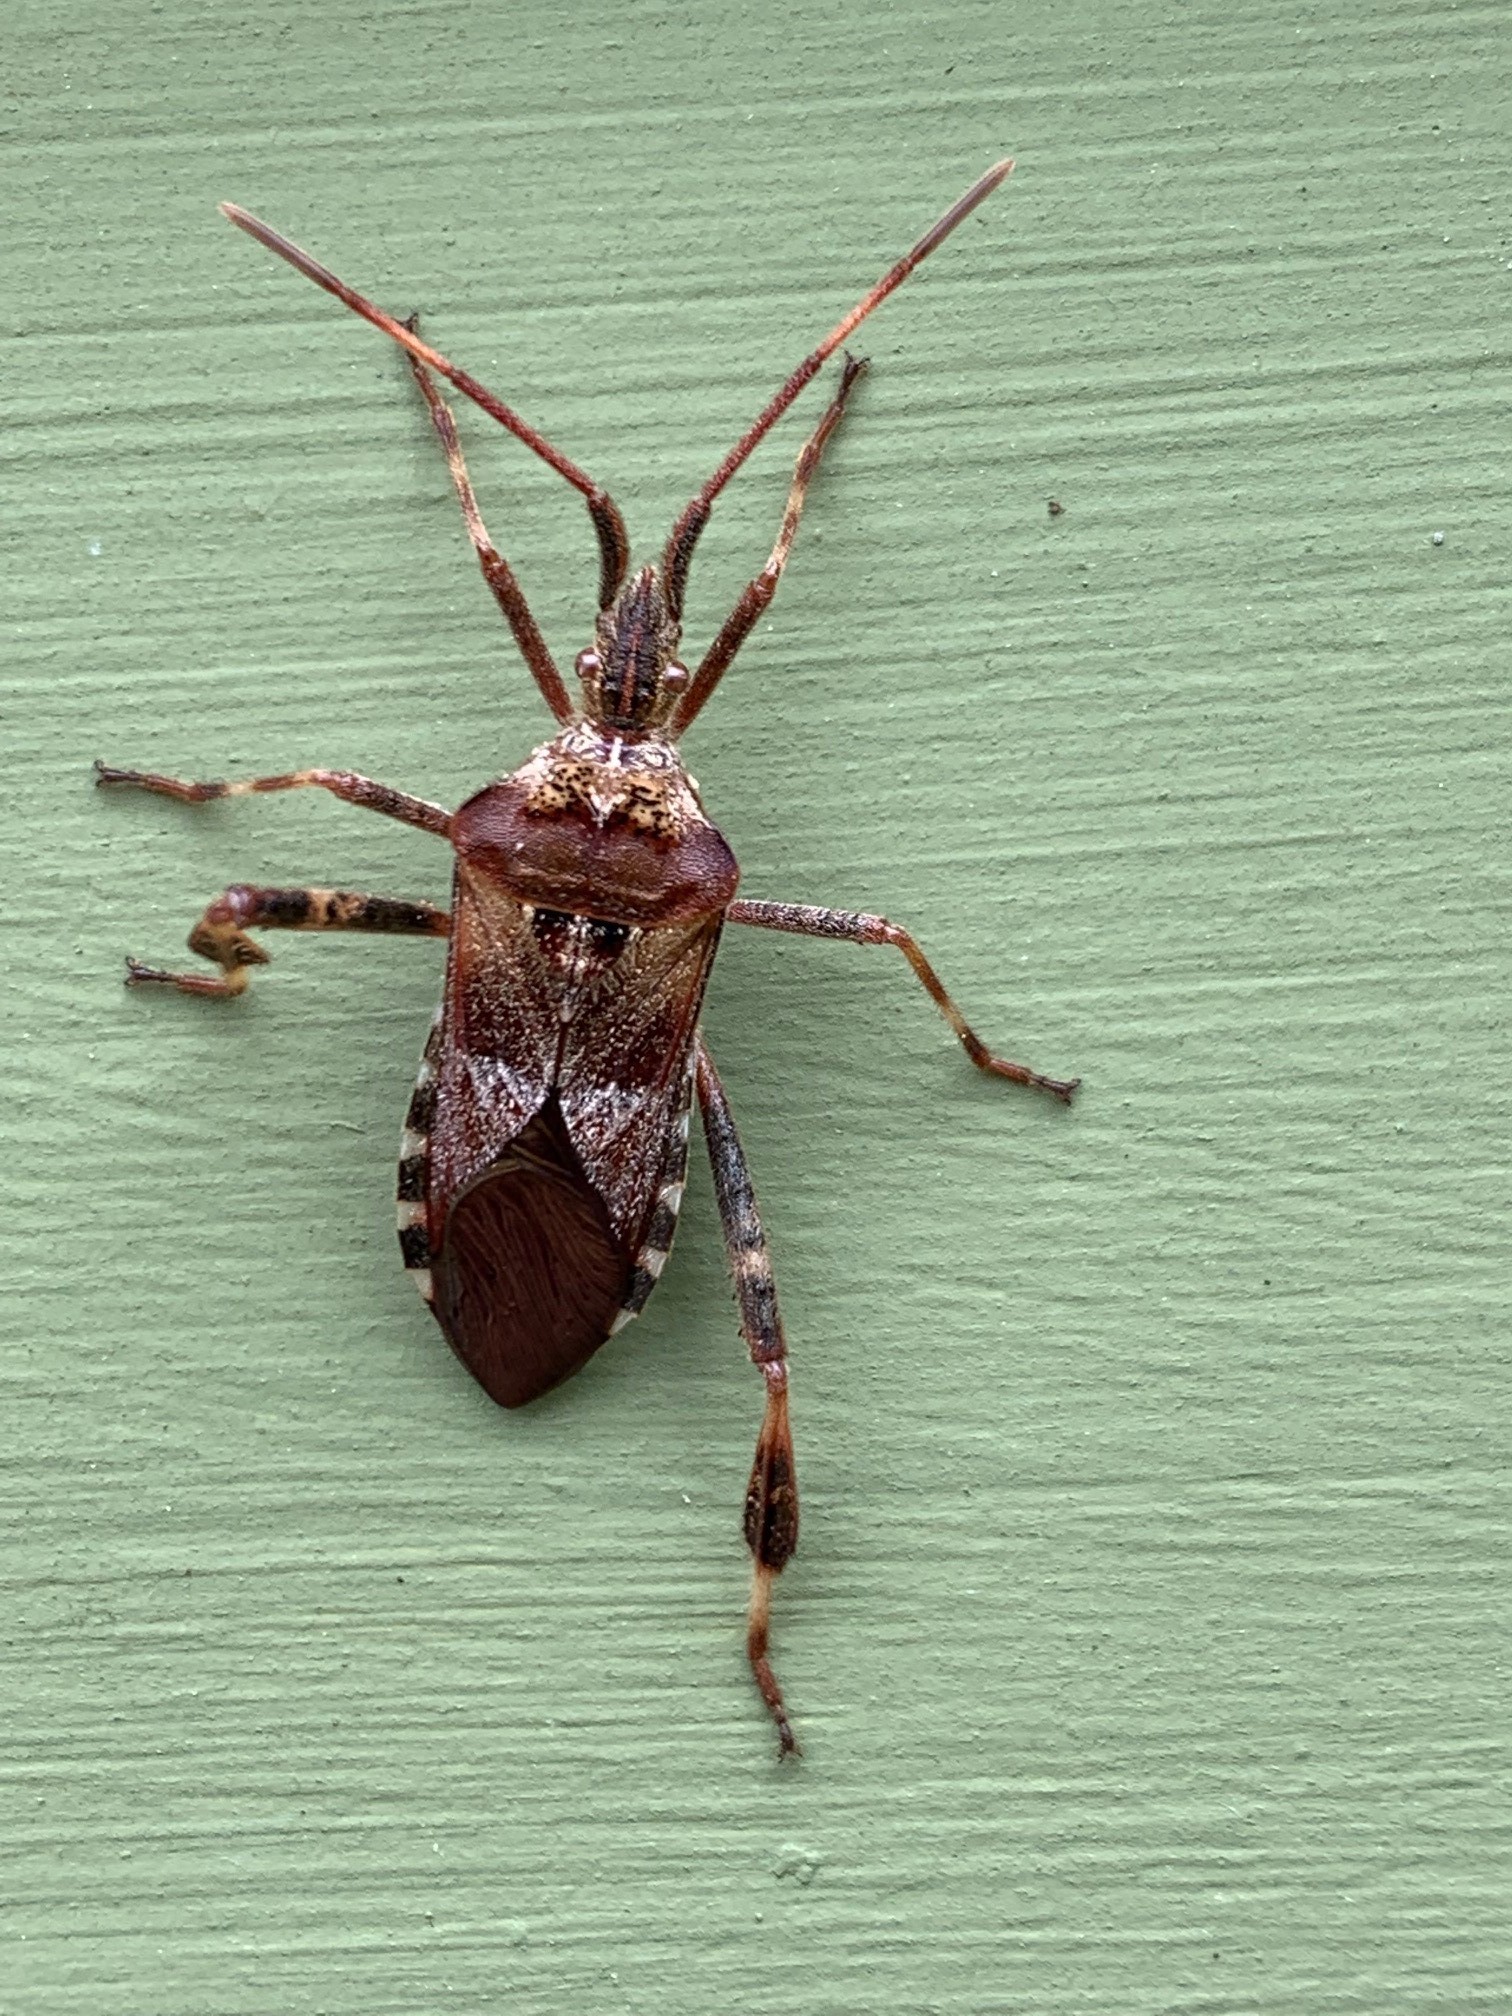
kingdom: Animalia
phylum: Arthropoda
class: Insecta
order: Hemiptera
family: Coreidae
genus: Leptoglossus
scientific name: Leptoglossus occidentalis
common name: Western conifer-seed bug
